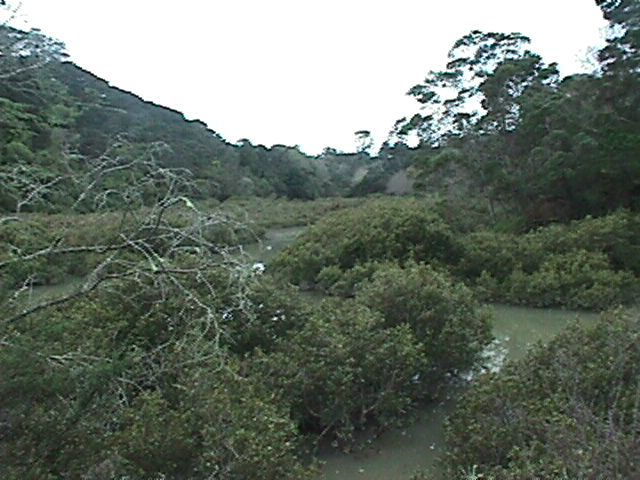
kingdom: Plantae
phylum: Tracheophyta
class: Magnoliopsida
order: Lamiales
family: Acanthaceae
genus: Avicennia
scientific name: Avicennia marina
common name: Gray mangrove
